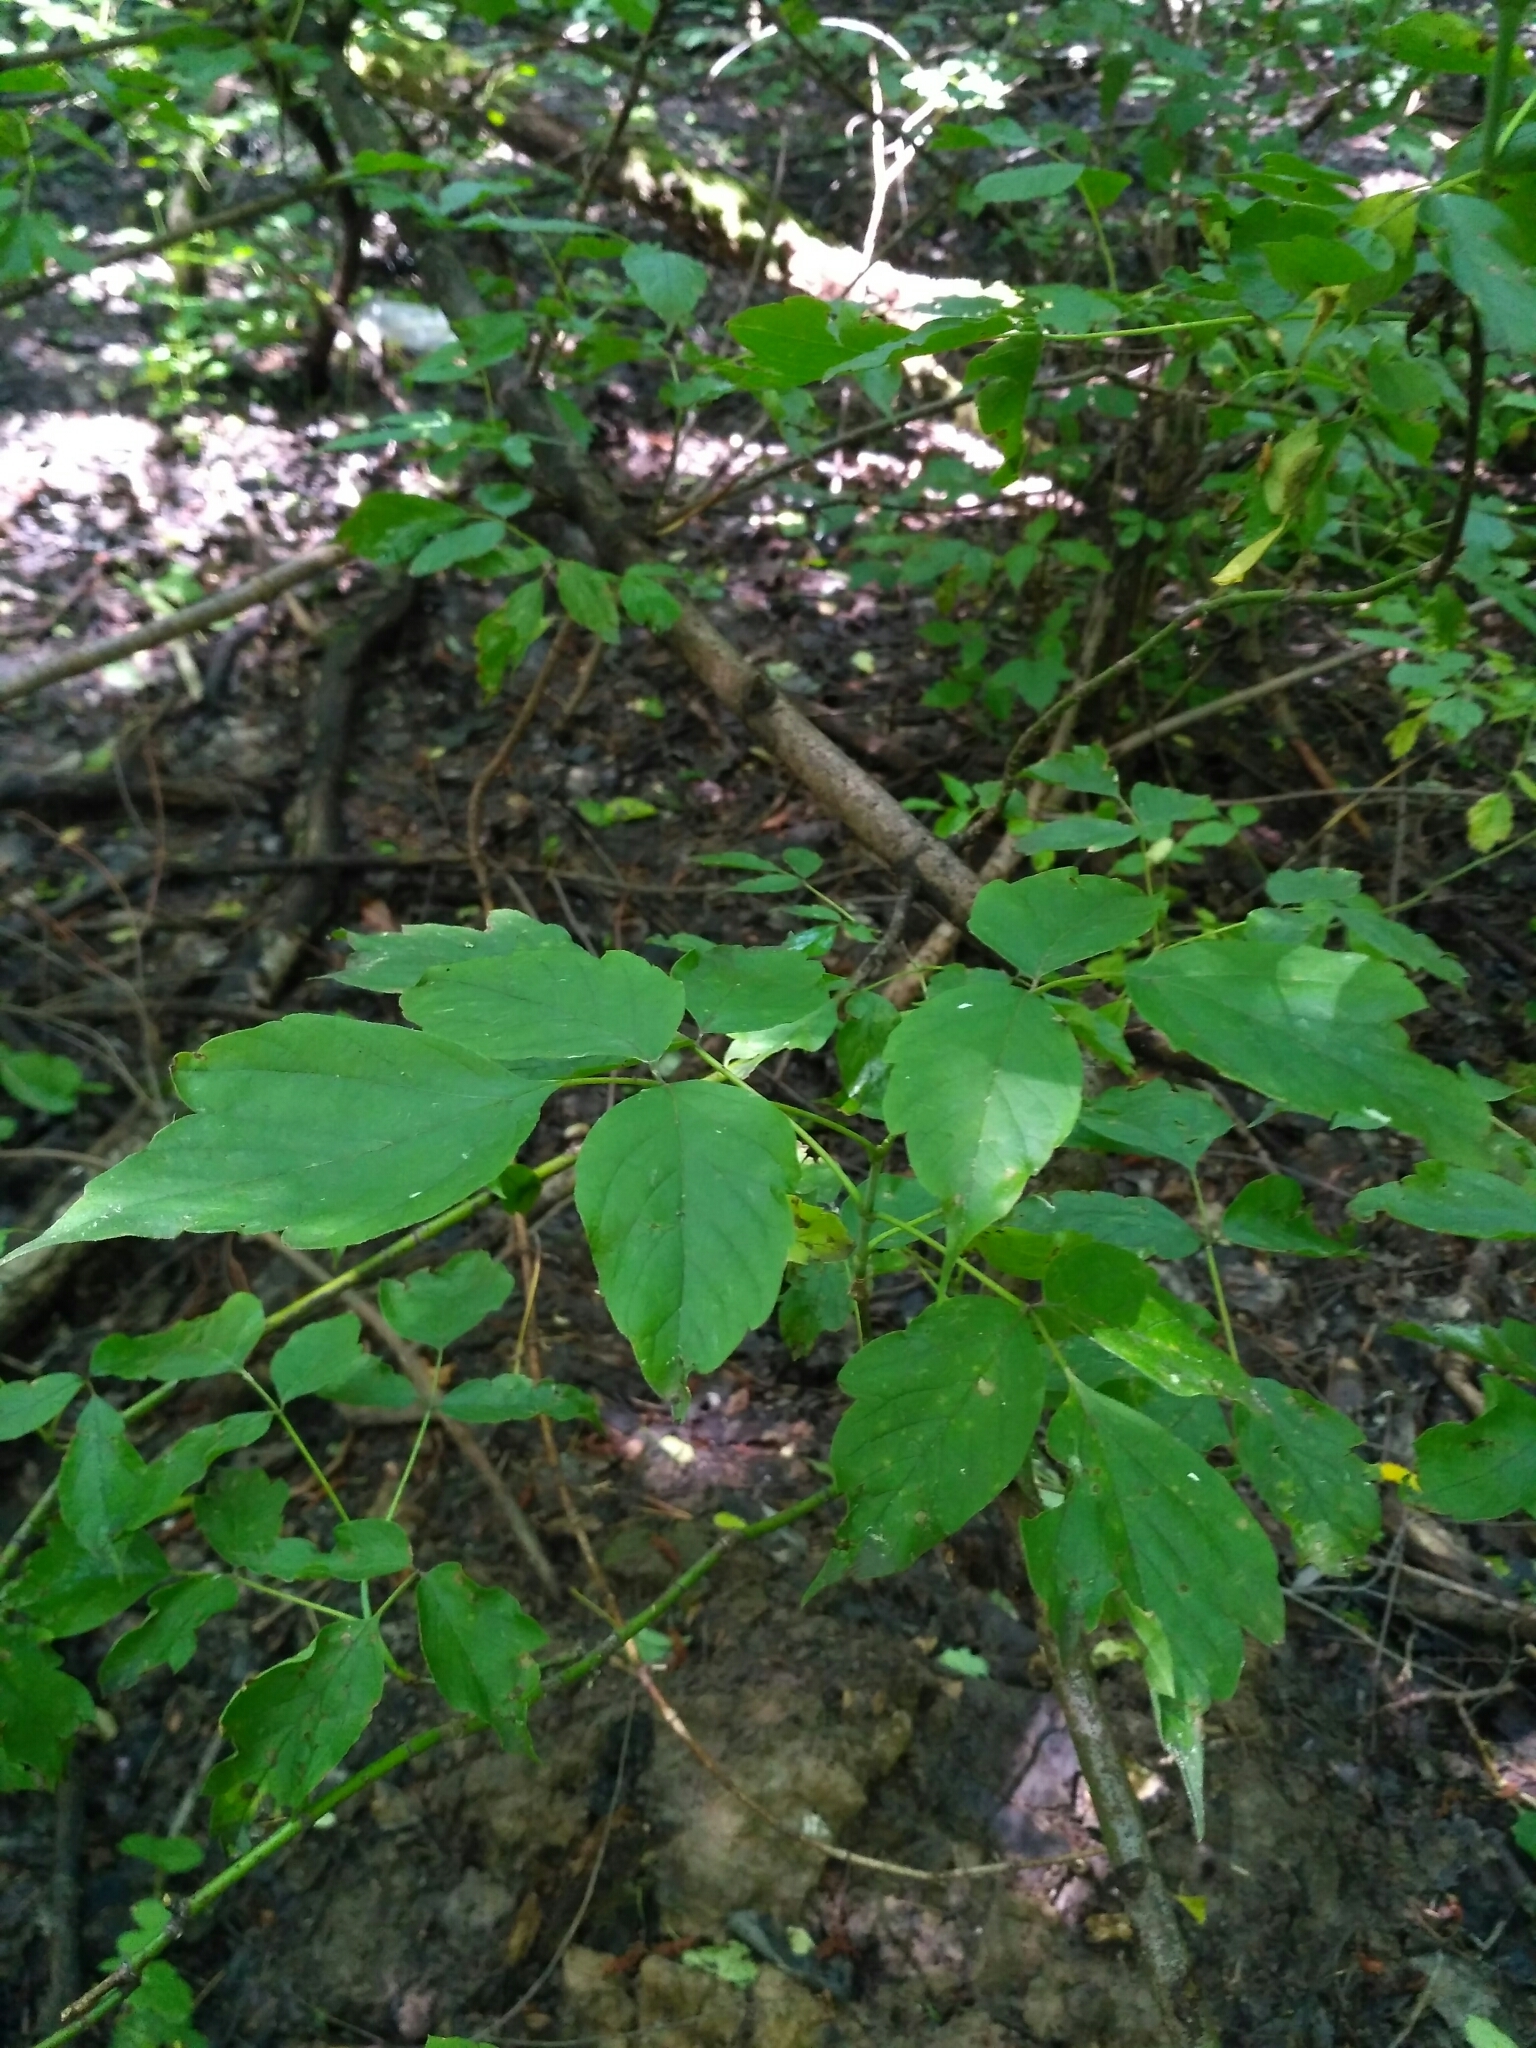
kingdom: Plantae
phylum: Tracheophyta
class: Magnoliopsida
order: Sapindales
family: Sapindaceae
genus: Acer
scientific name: Acer negundo
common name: Ashleaf maple
